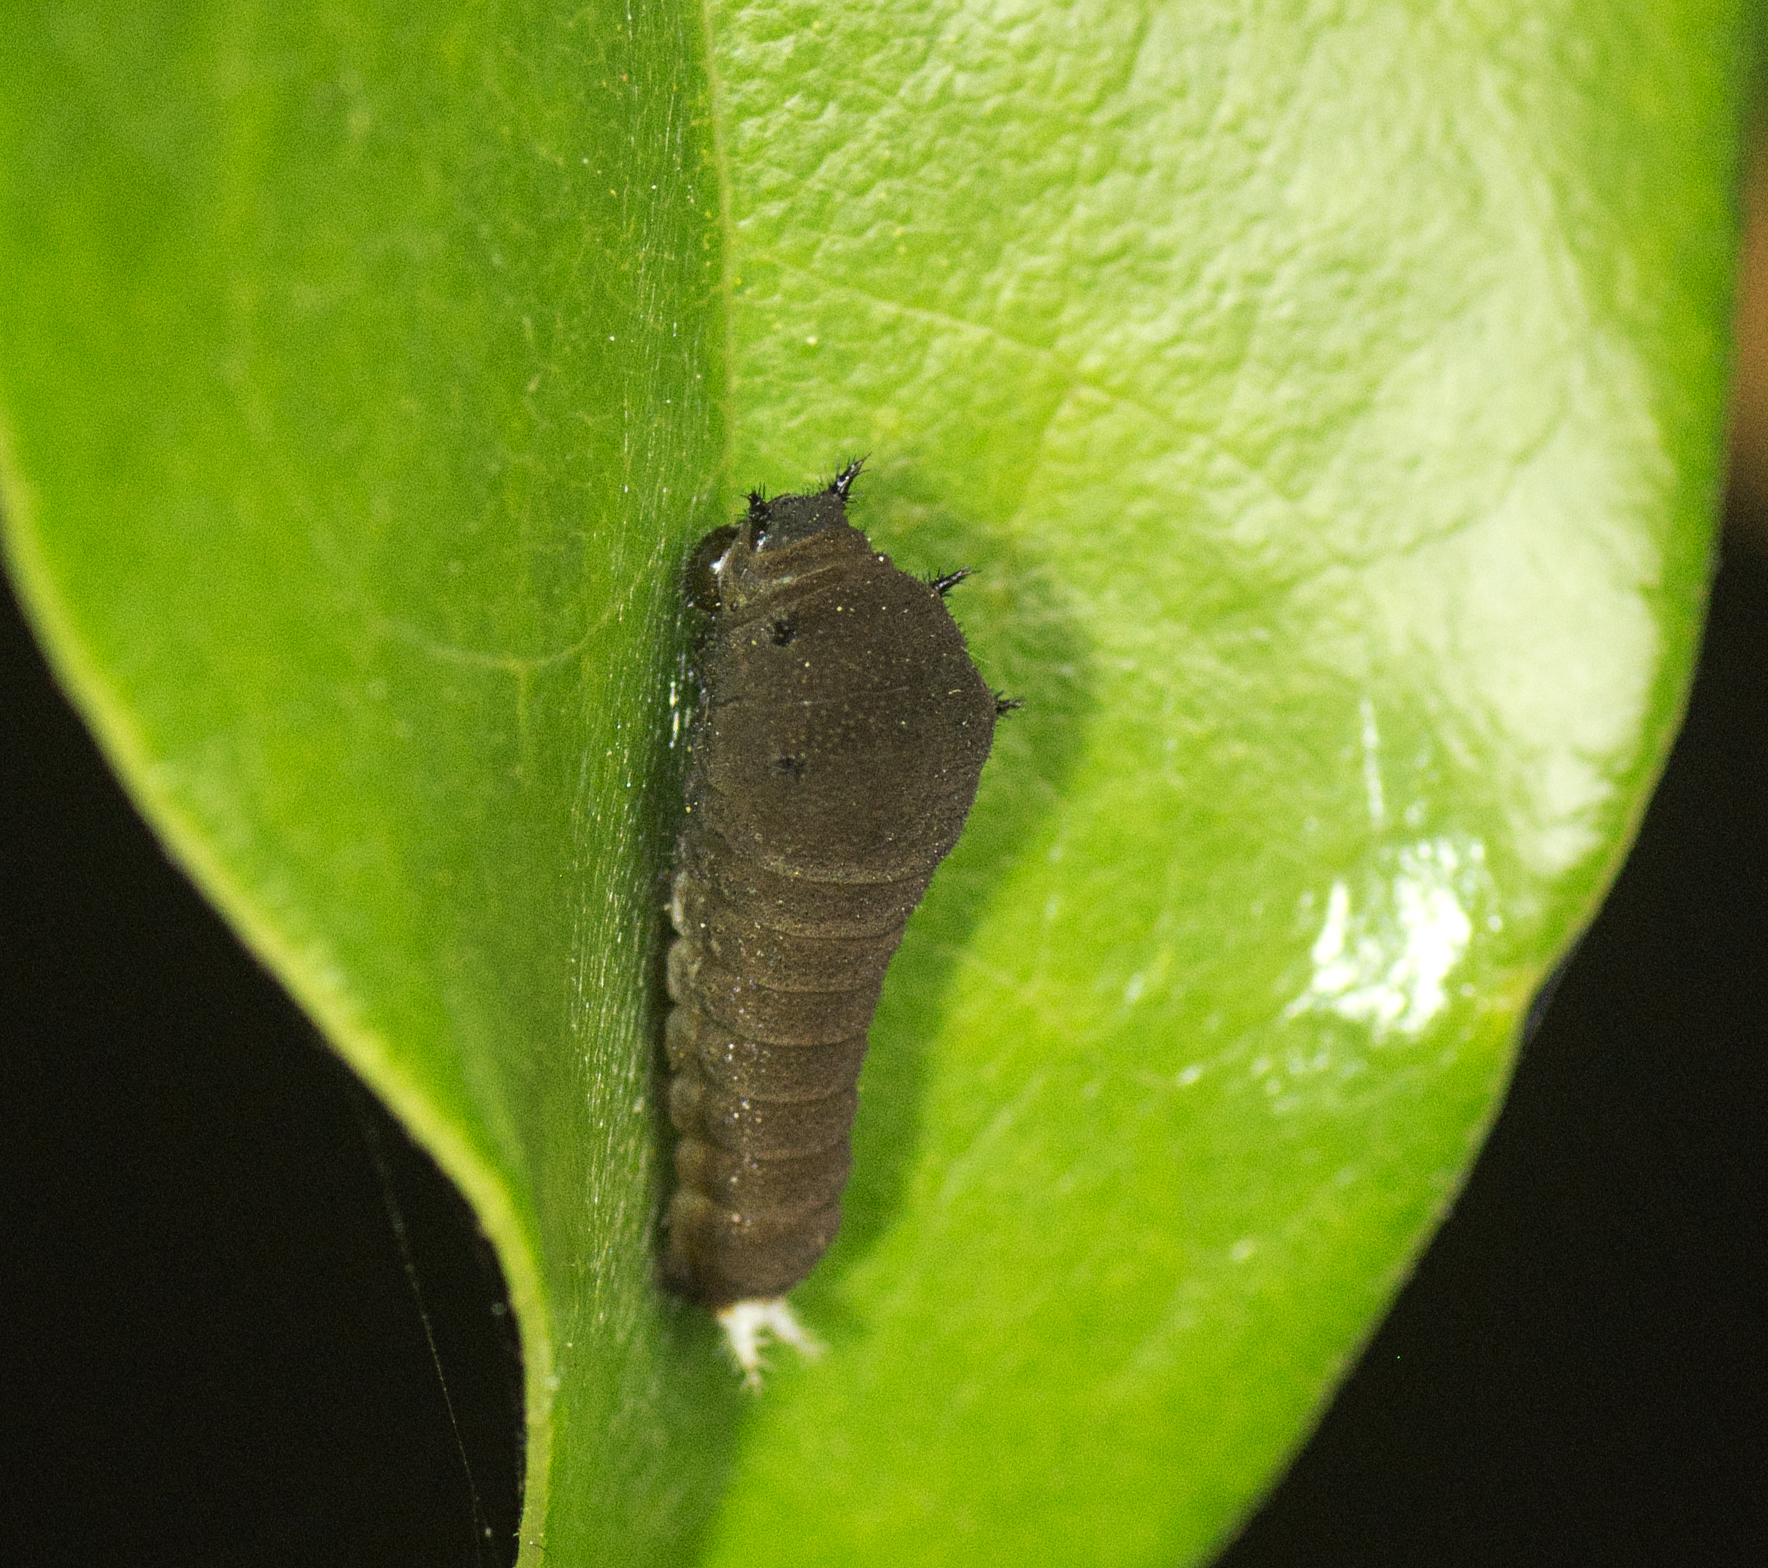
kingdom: Animalia
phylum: Arthropoda
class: Insecta
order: Lepidoptera
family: Papilionidae
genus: Graphium
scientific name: Graphium eurypylus
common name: Great jay
